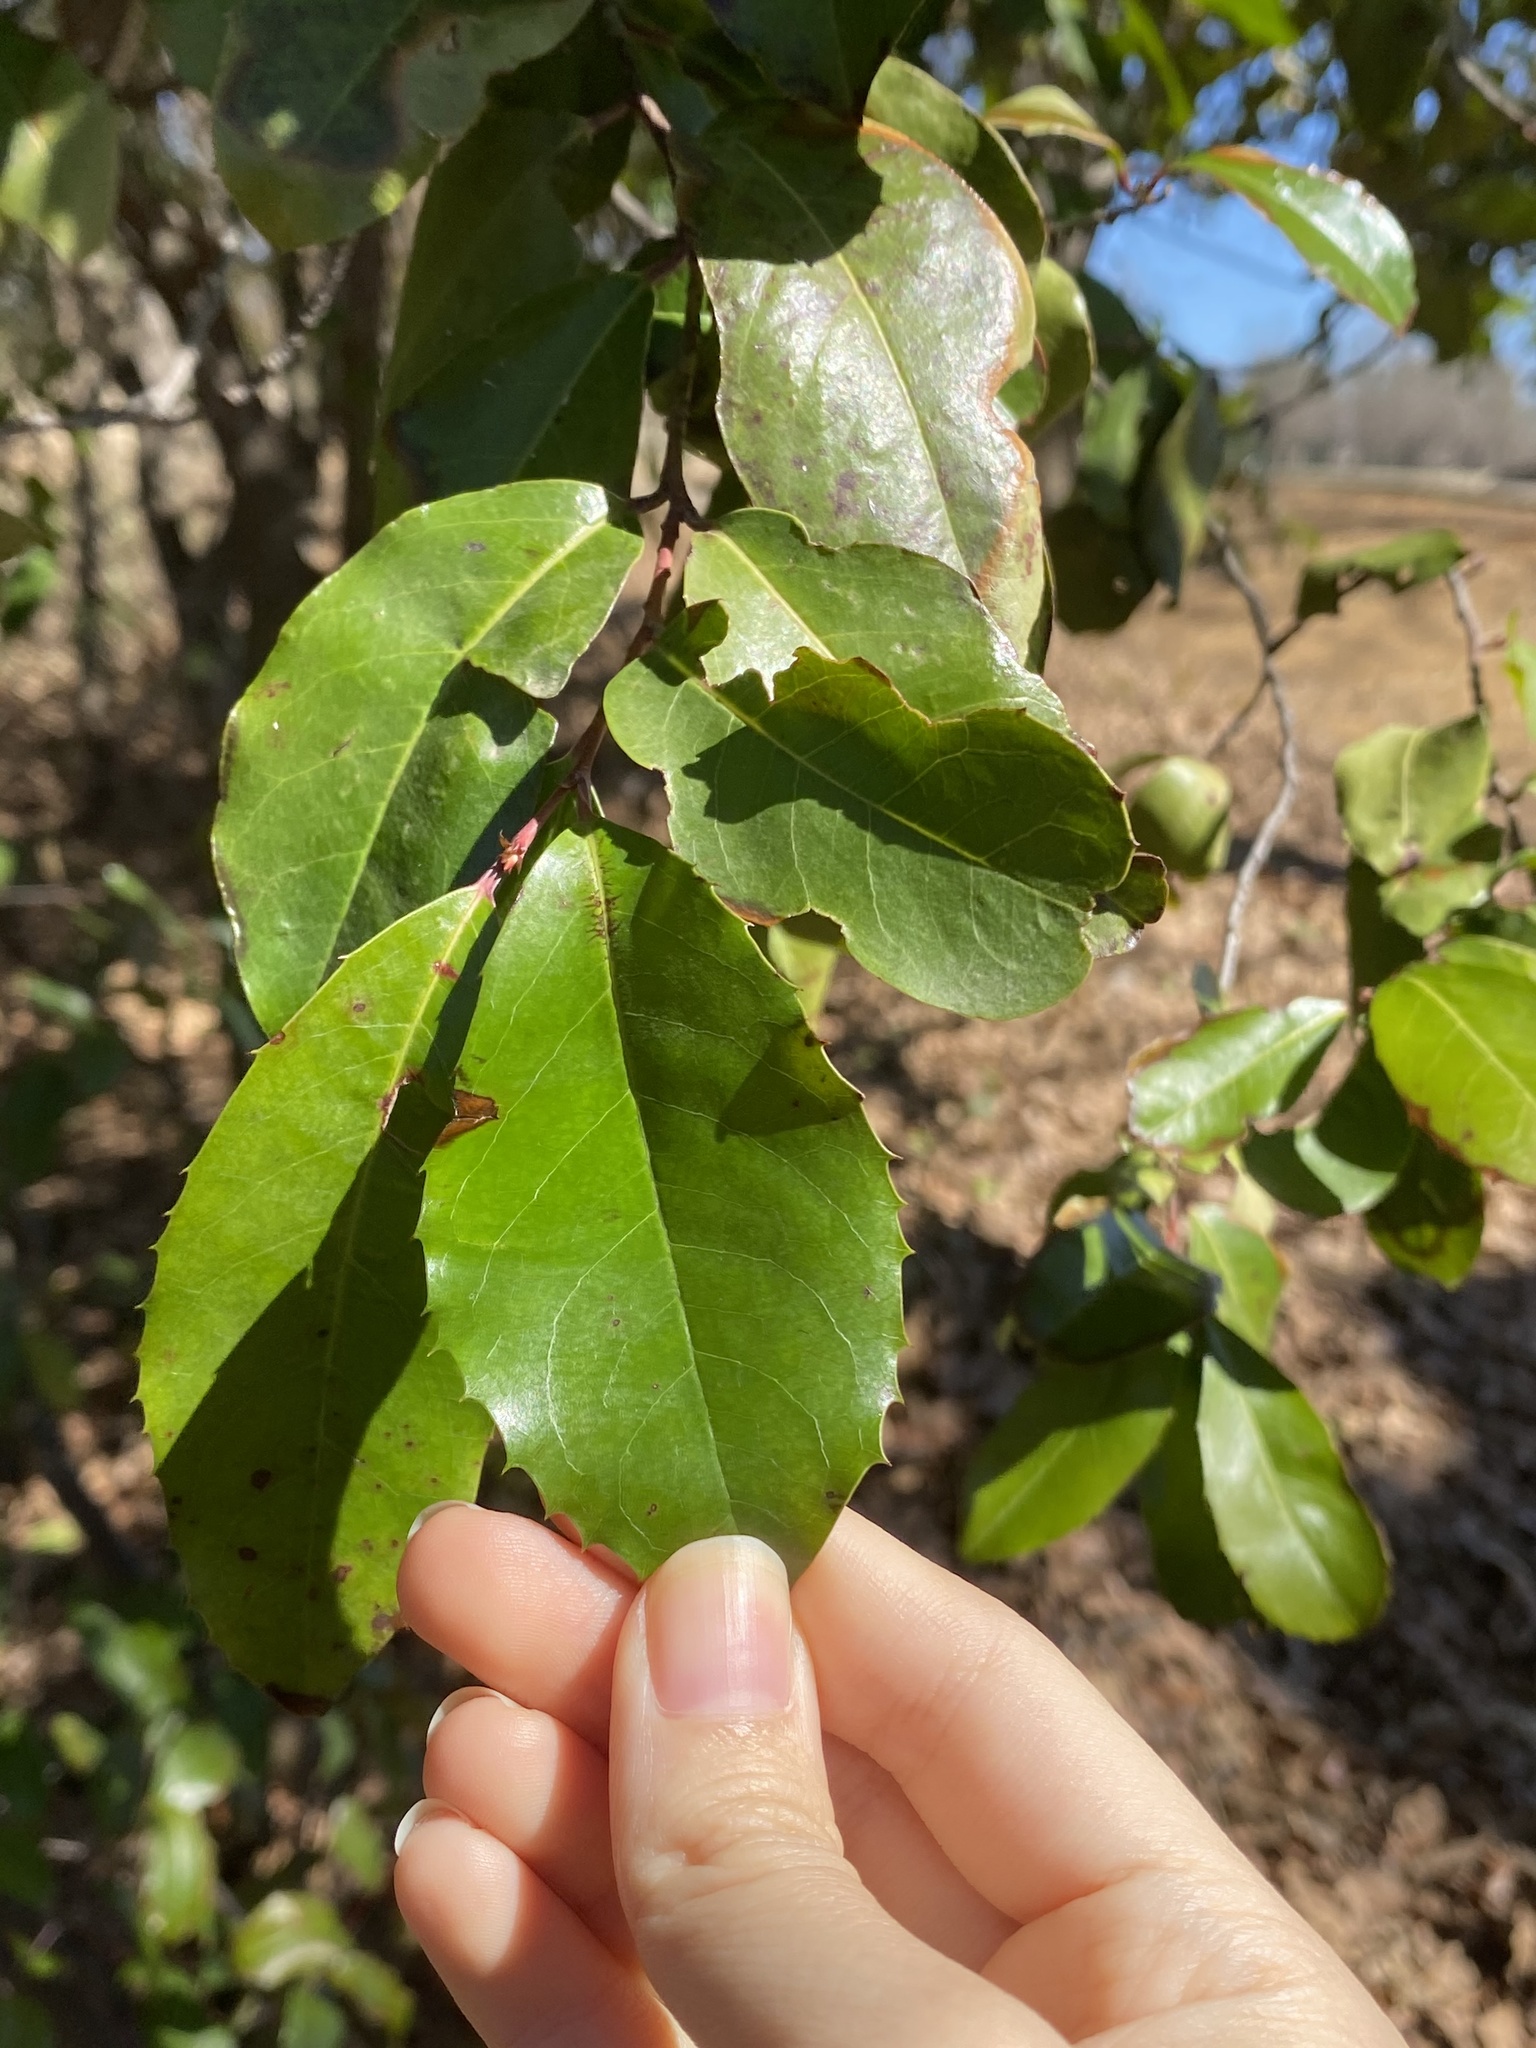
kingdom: Plantae
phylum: Tracheophyta
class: Magnoliopsida
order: Rosales
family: Rosaceae
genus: Prunus
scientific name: Prunus caroliniana
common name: Carolina laurel cherry
